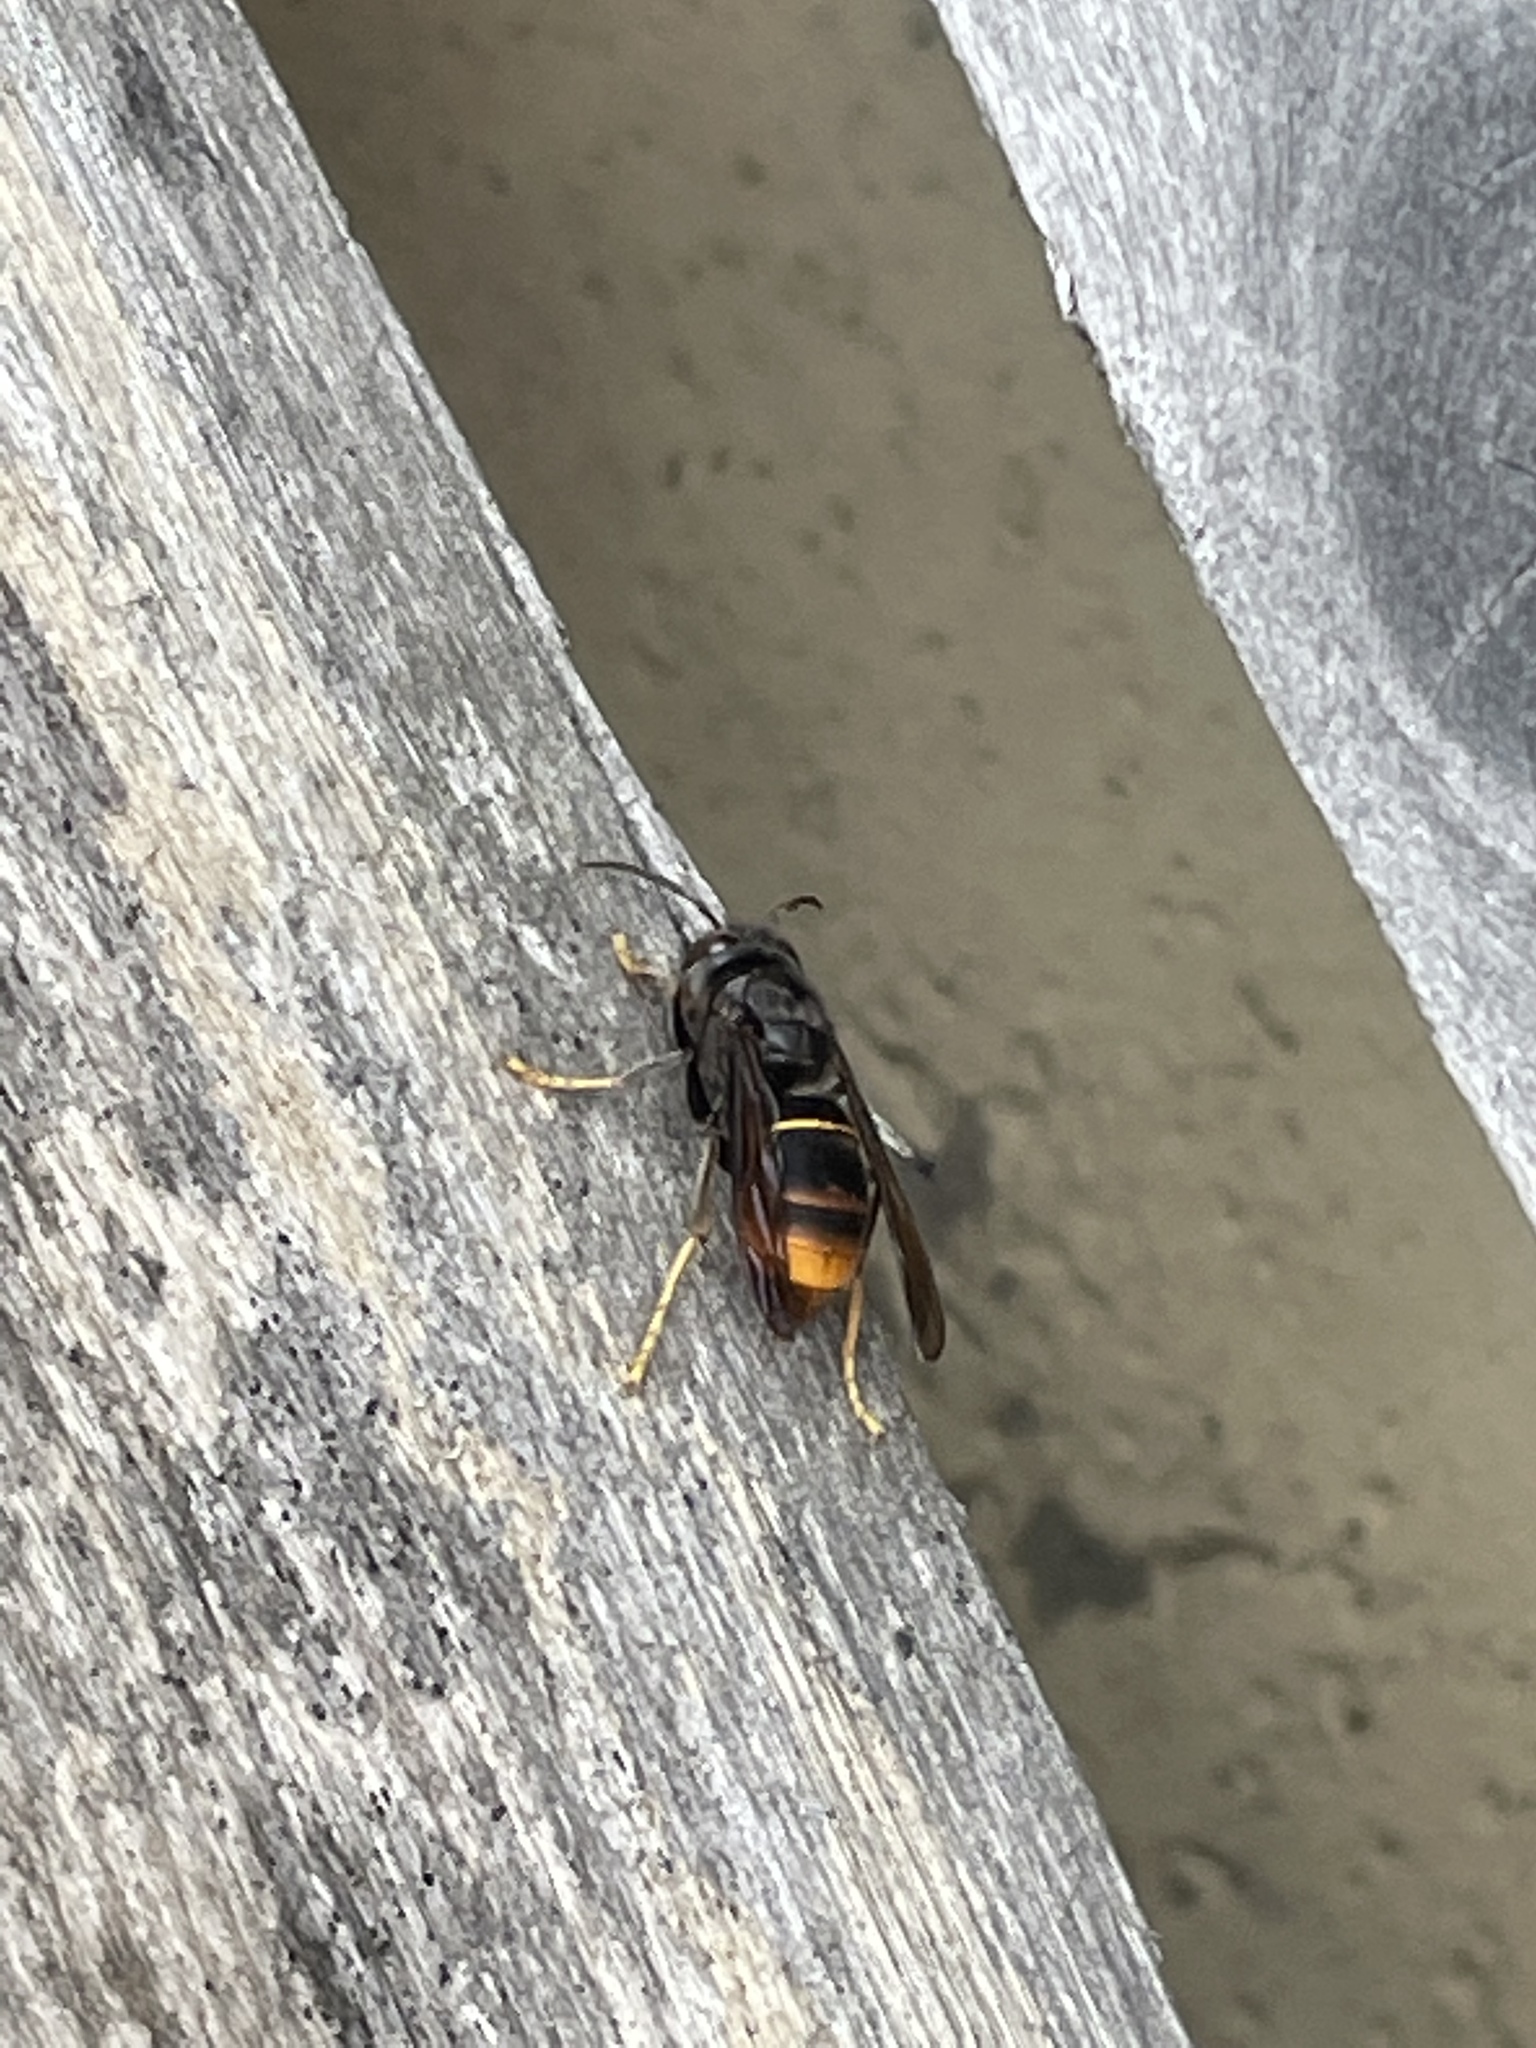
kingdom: Animalia
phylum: Arthropoda
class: Insecta
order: Hymenoptera
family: Vespidae
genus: Vespa
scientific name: Vespa velutina
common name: Asian hornet
